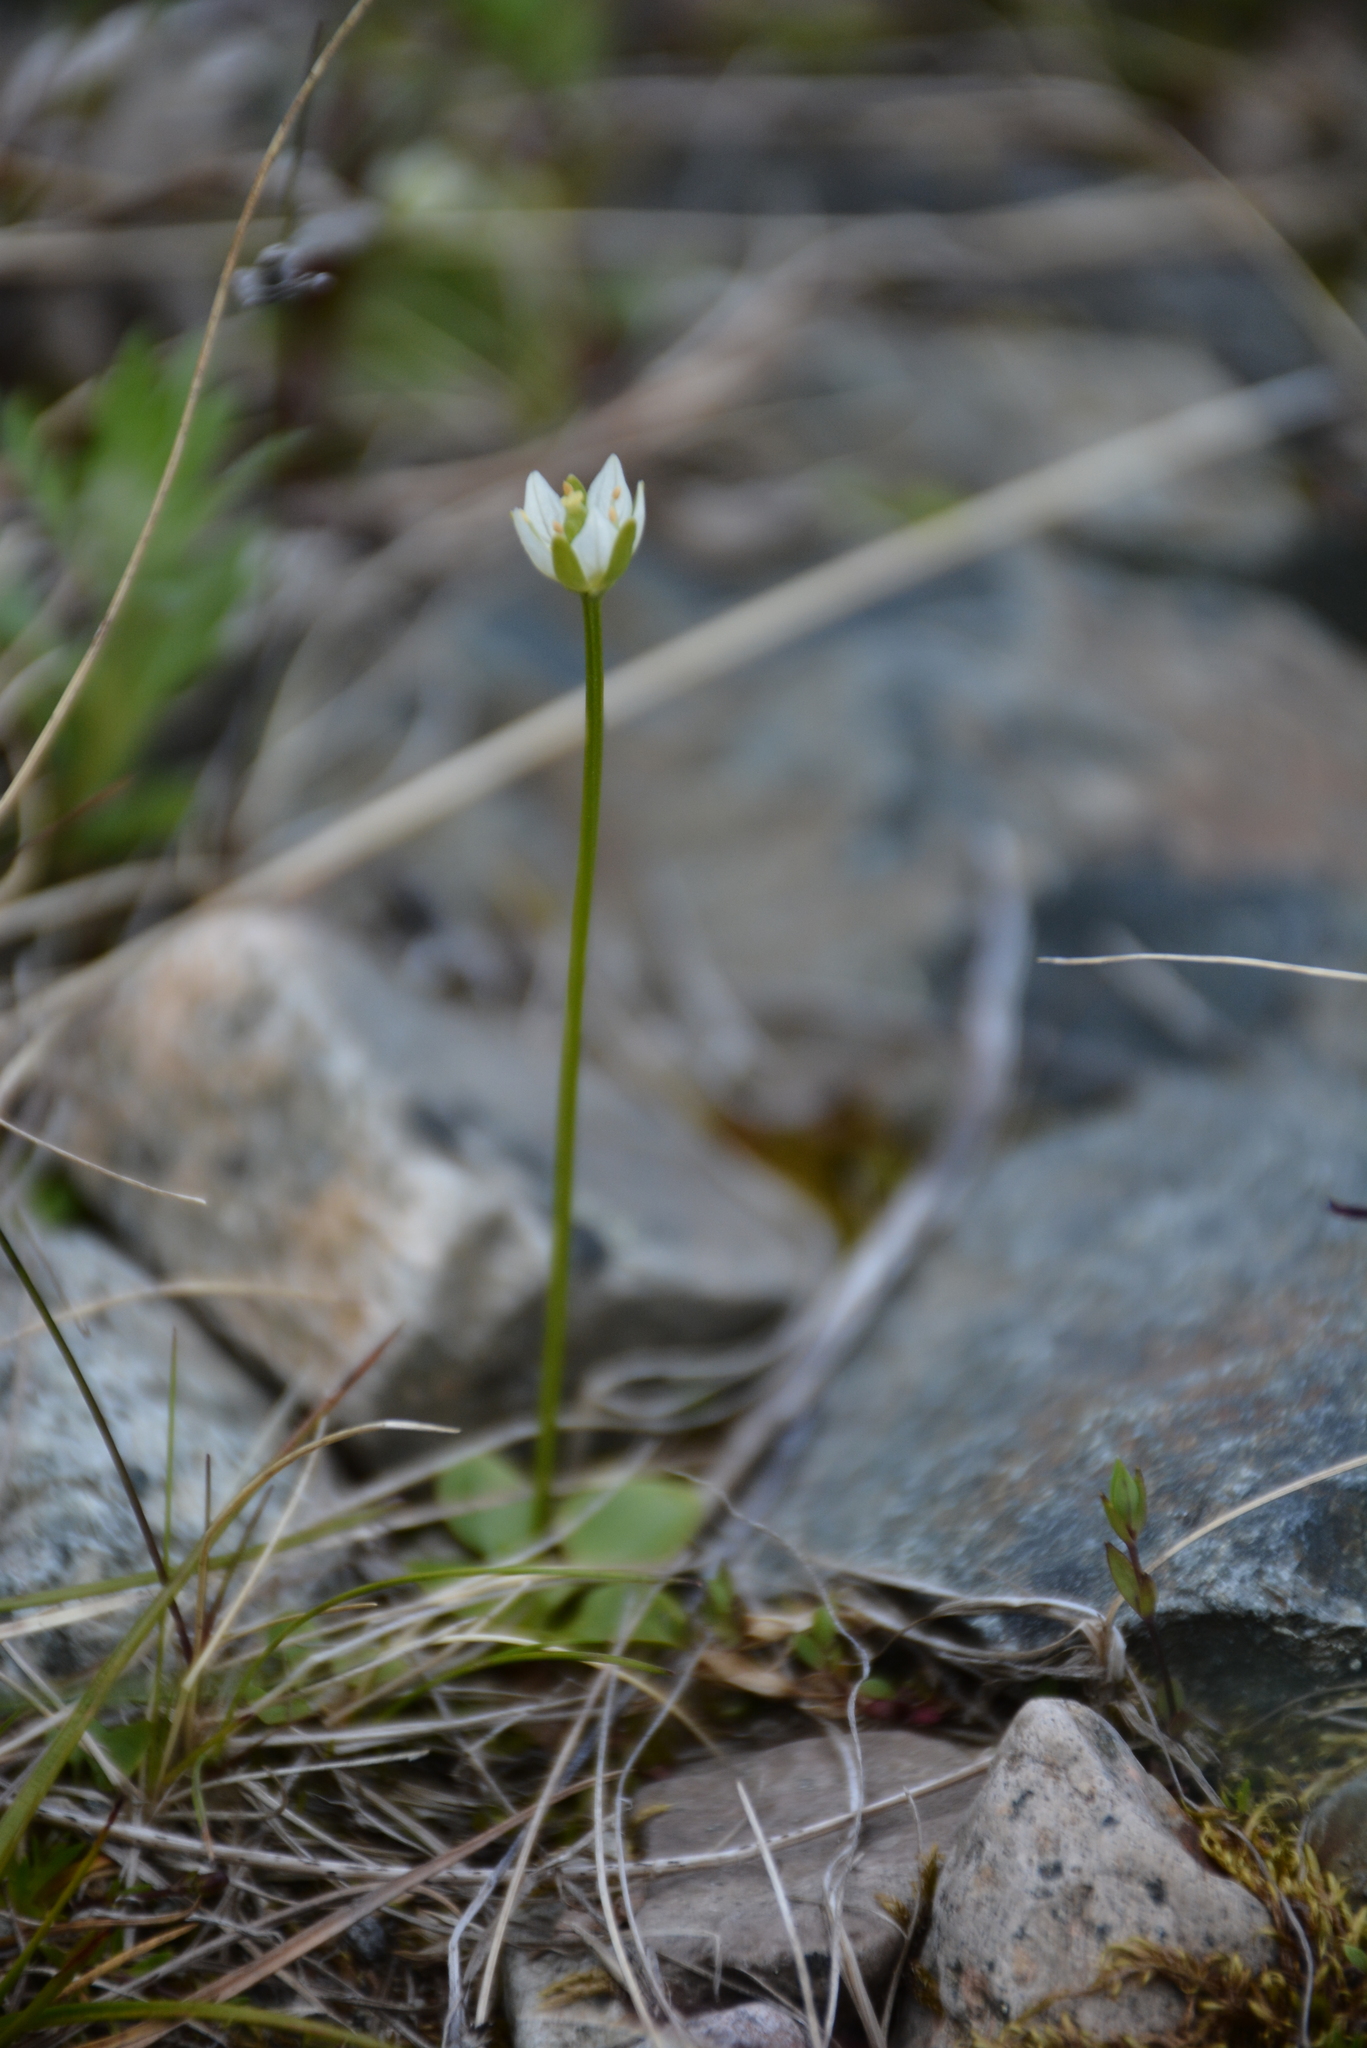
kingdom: Plantae
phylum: Tracheophyta
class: Magnoliopsida
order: Celastrales
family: Parnassiaceae
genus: Parnassia
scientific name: Parnassia kotzebuei
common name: Kotzebue's grass-of-parnassus
